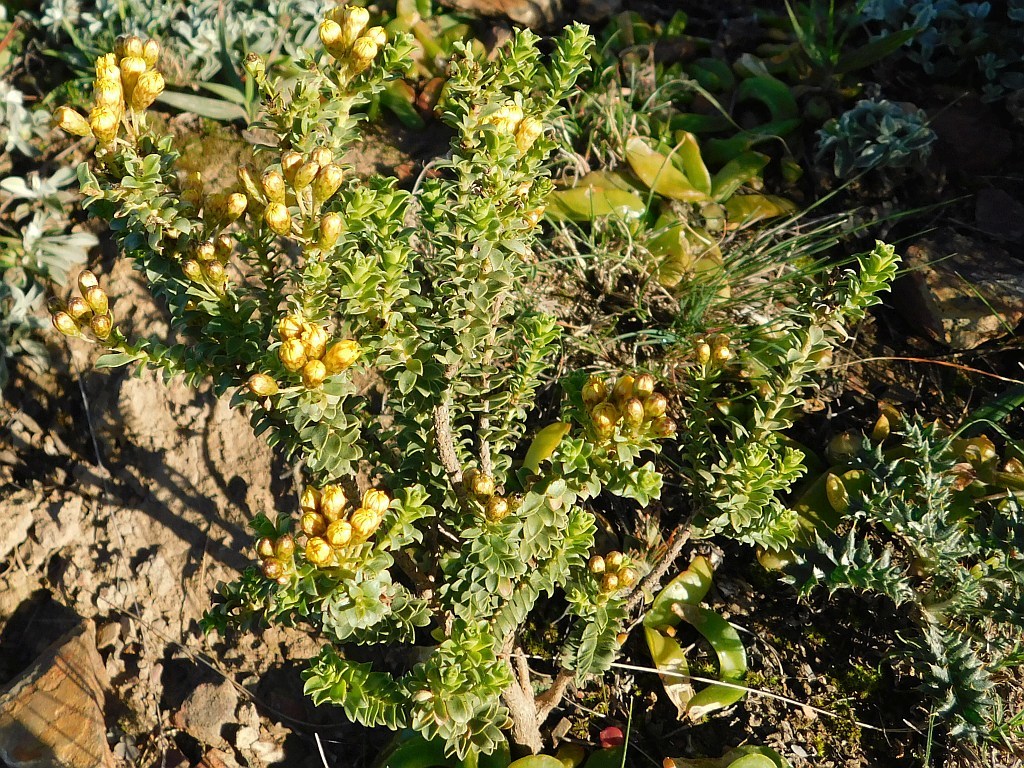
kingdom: Plantae
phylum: Tracheophyta
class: Magnoliopsida
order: Asterales
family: Asteraceae
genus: Oedera
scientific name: Oedera squarrosa
